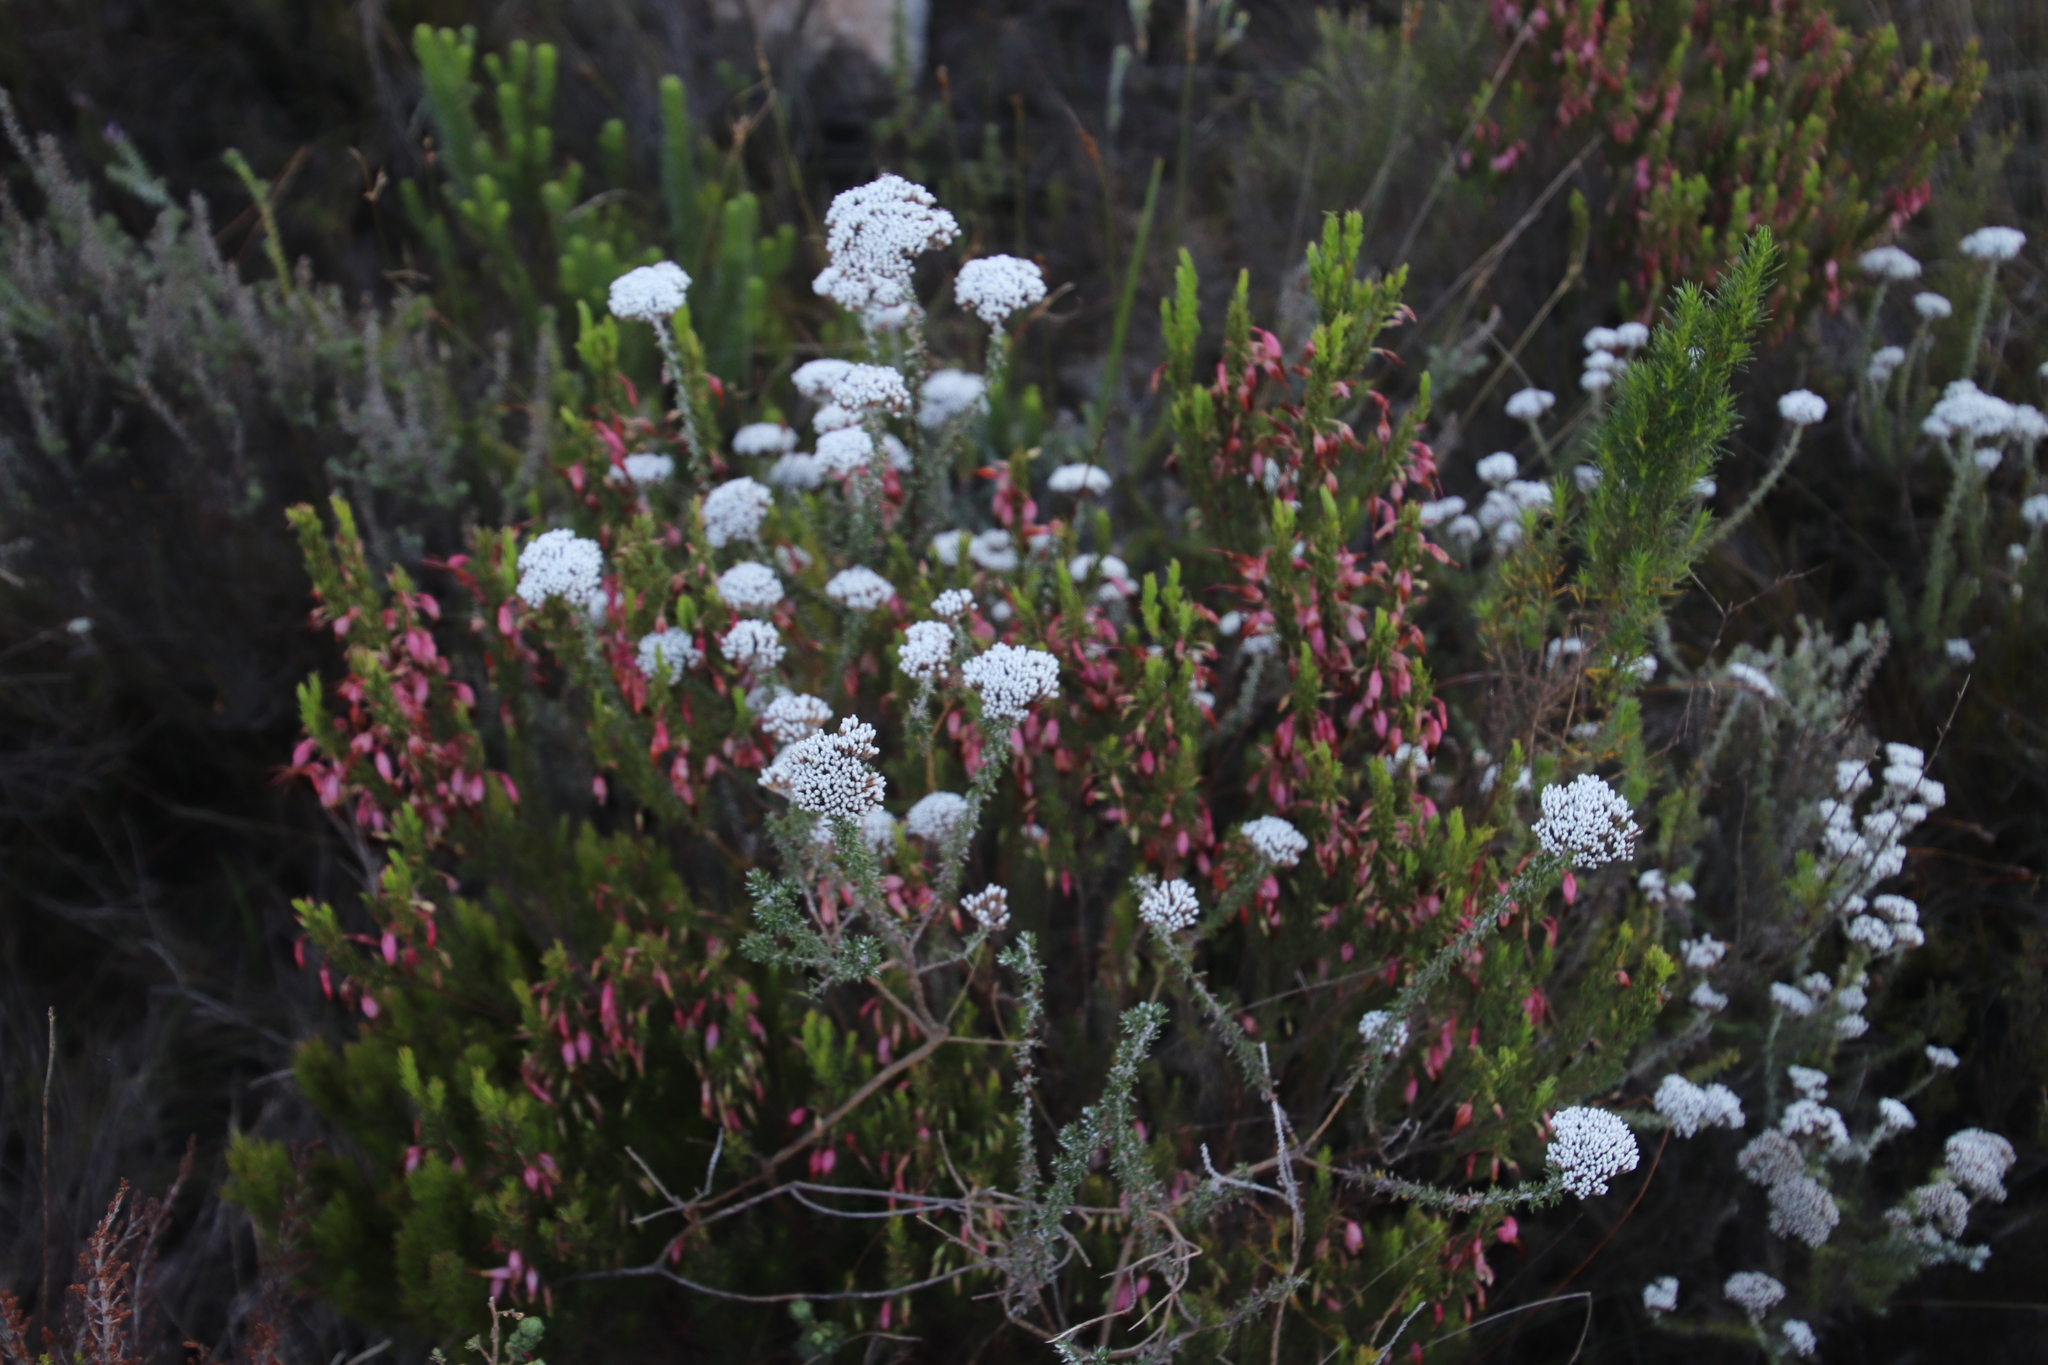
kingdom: Plantae
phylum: Tracheophyta
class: Magnoliopsida
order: Asterales
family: Asteraceae
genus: Metalasia
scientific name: Metalasia densa
